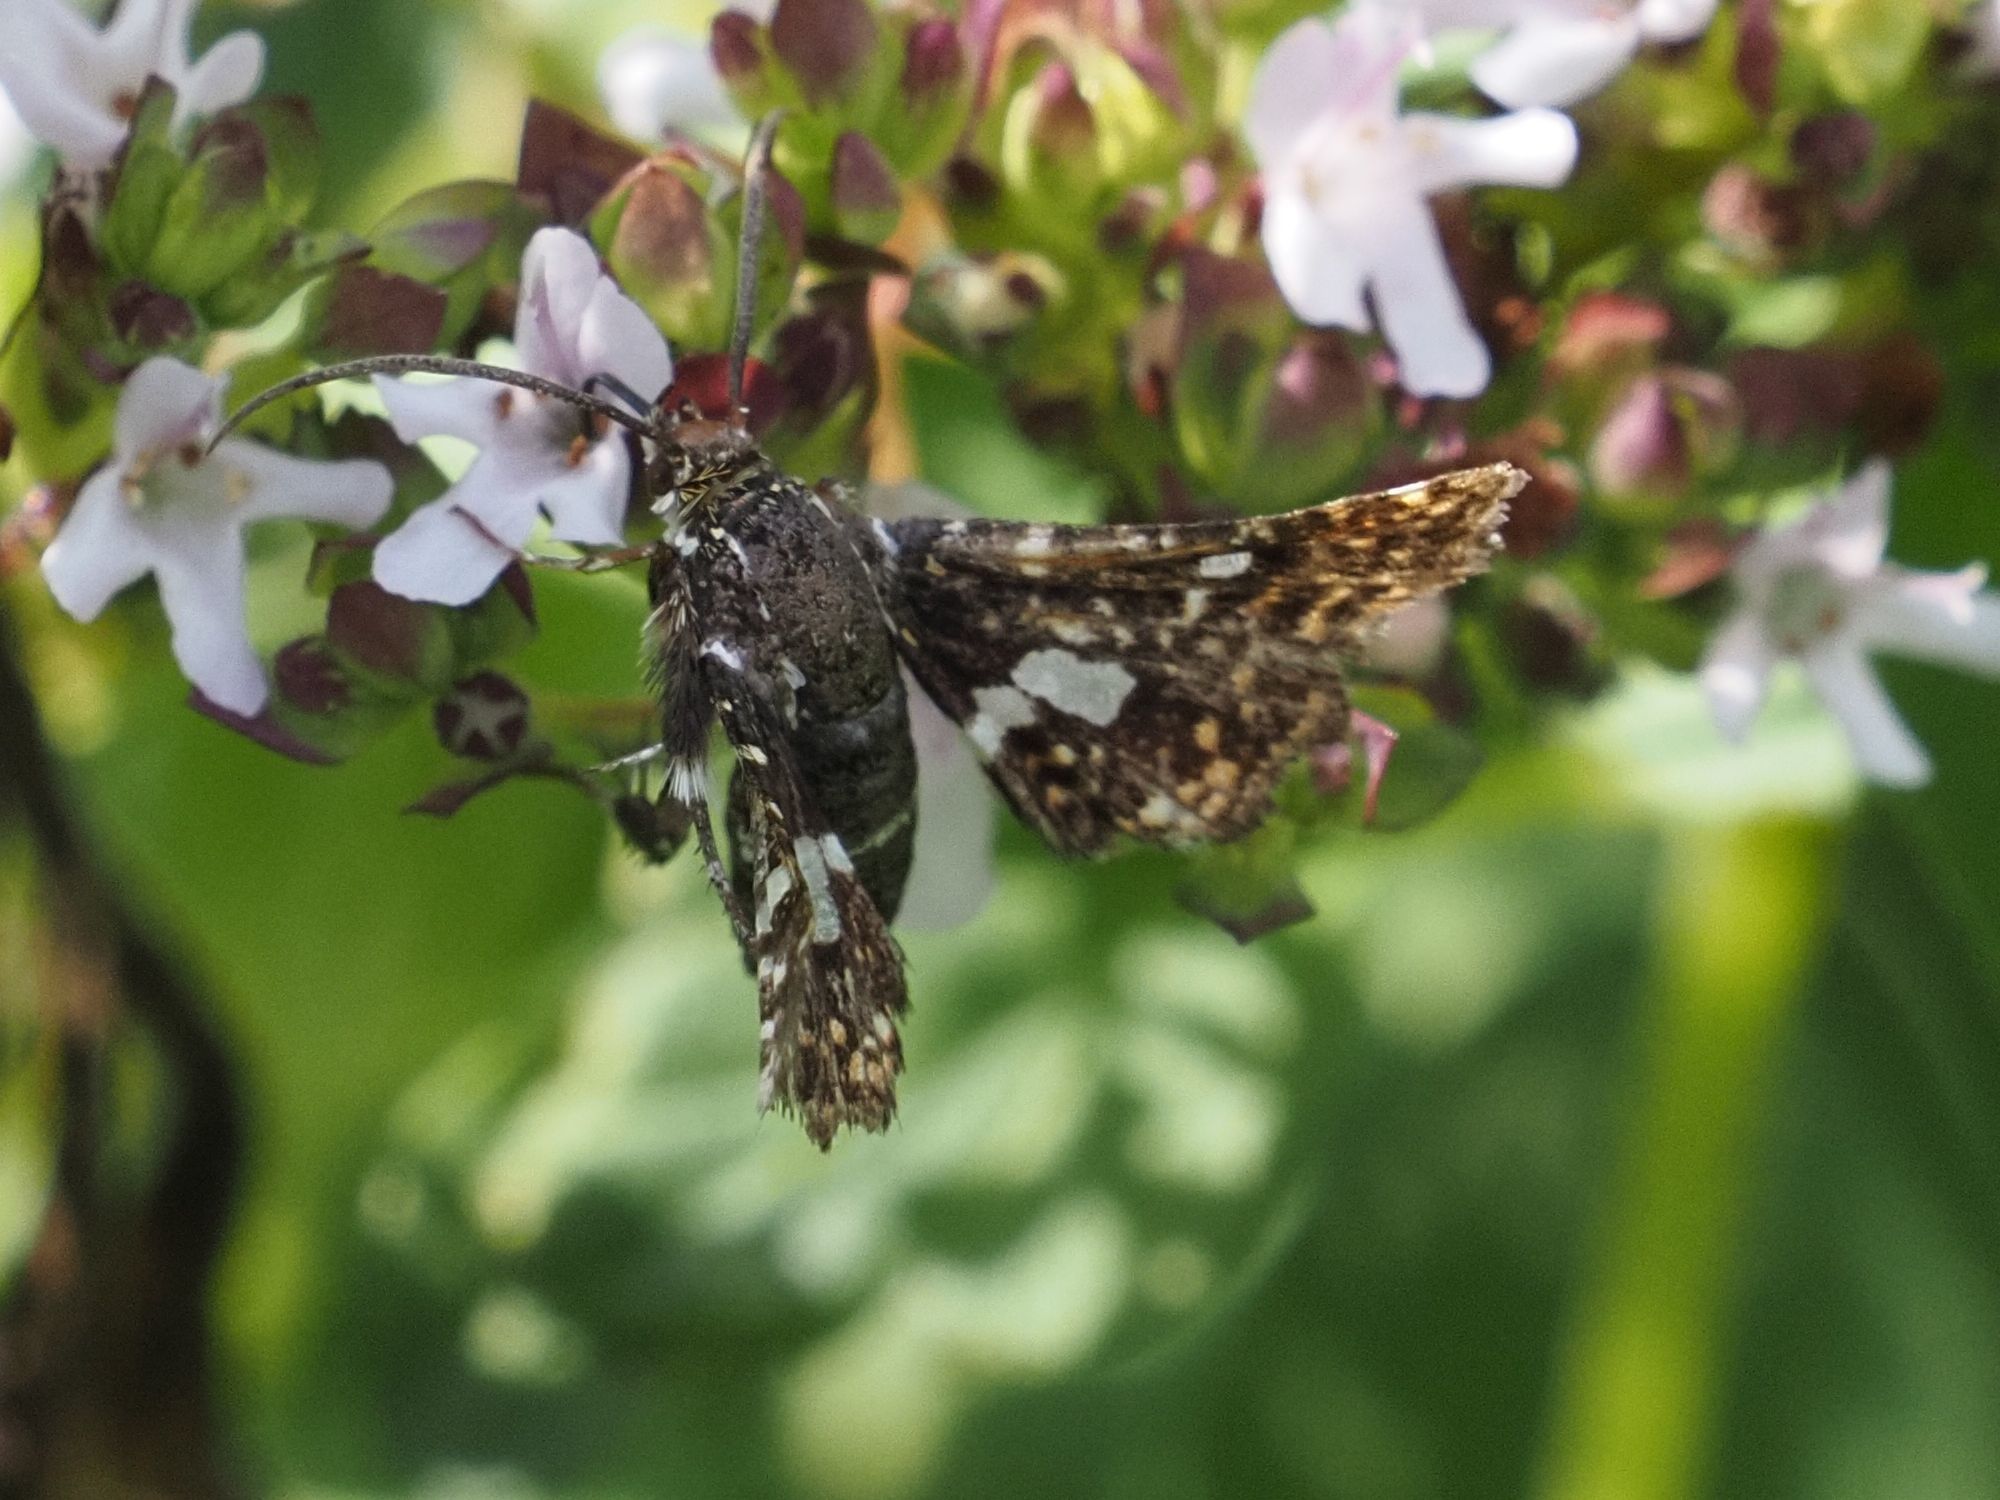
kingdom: Animalia
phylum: Arthropoda
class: Insecta
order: Lepidoptera
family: Thyrididae
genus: Thyris
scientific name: Thyris fenestrella
